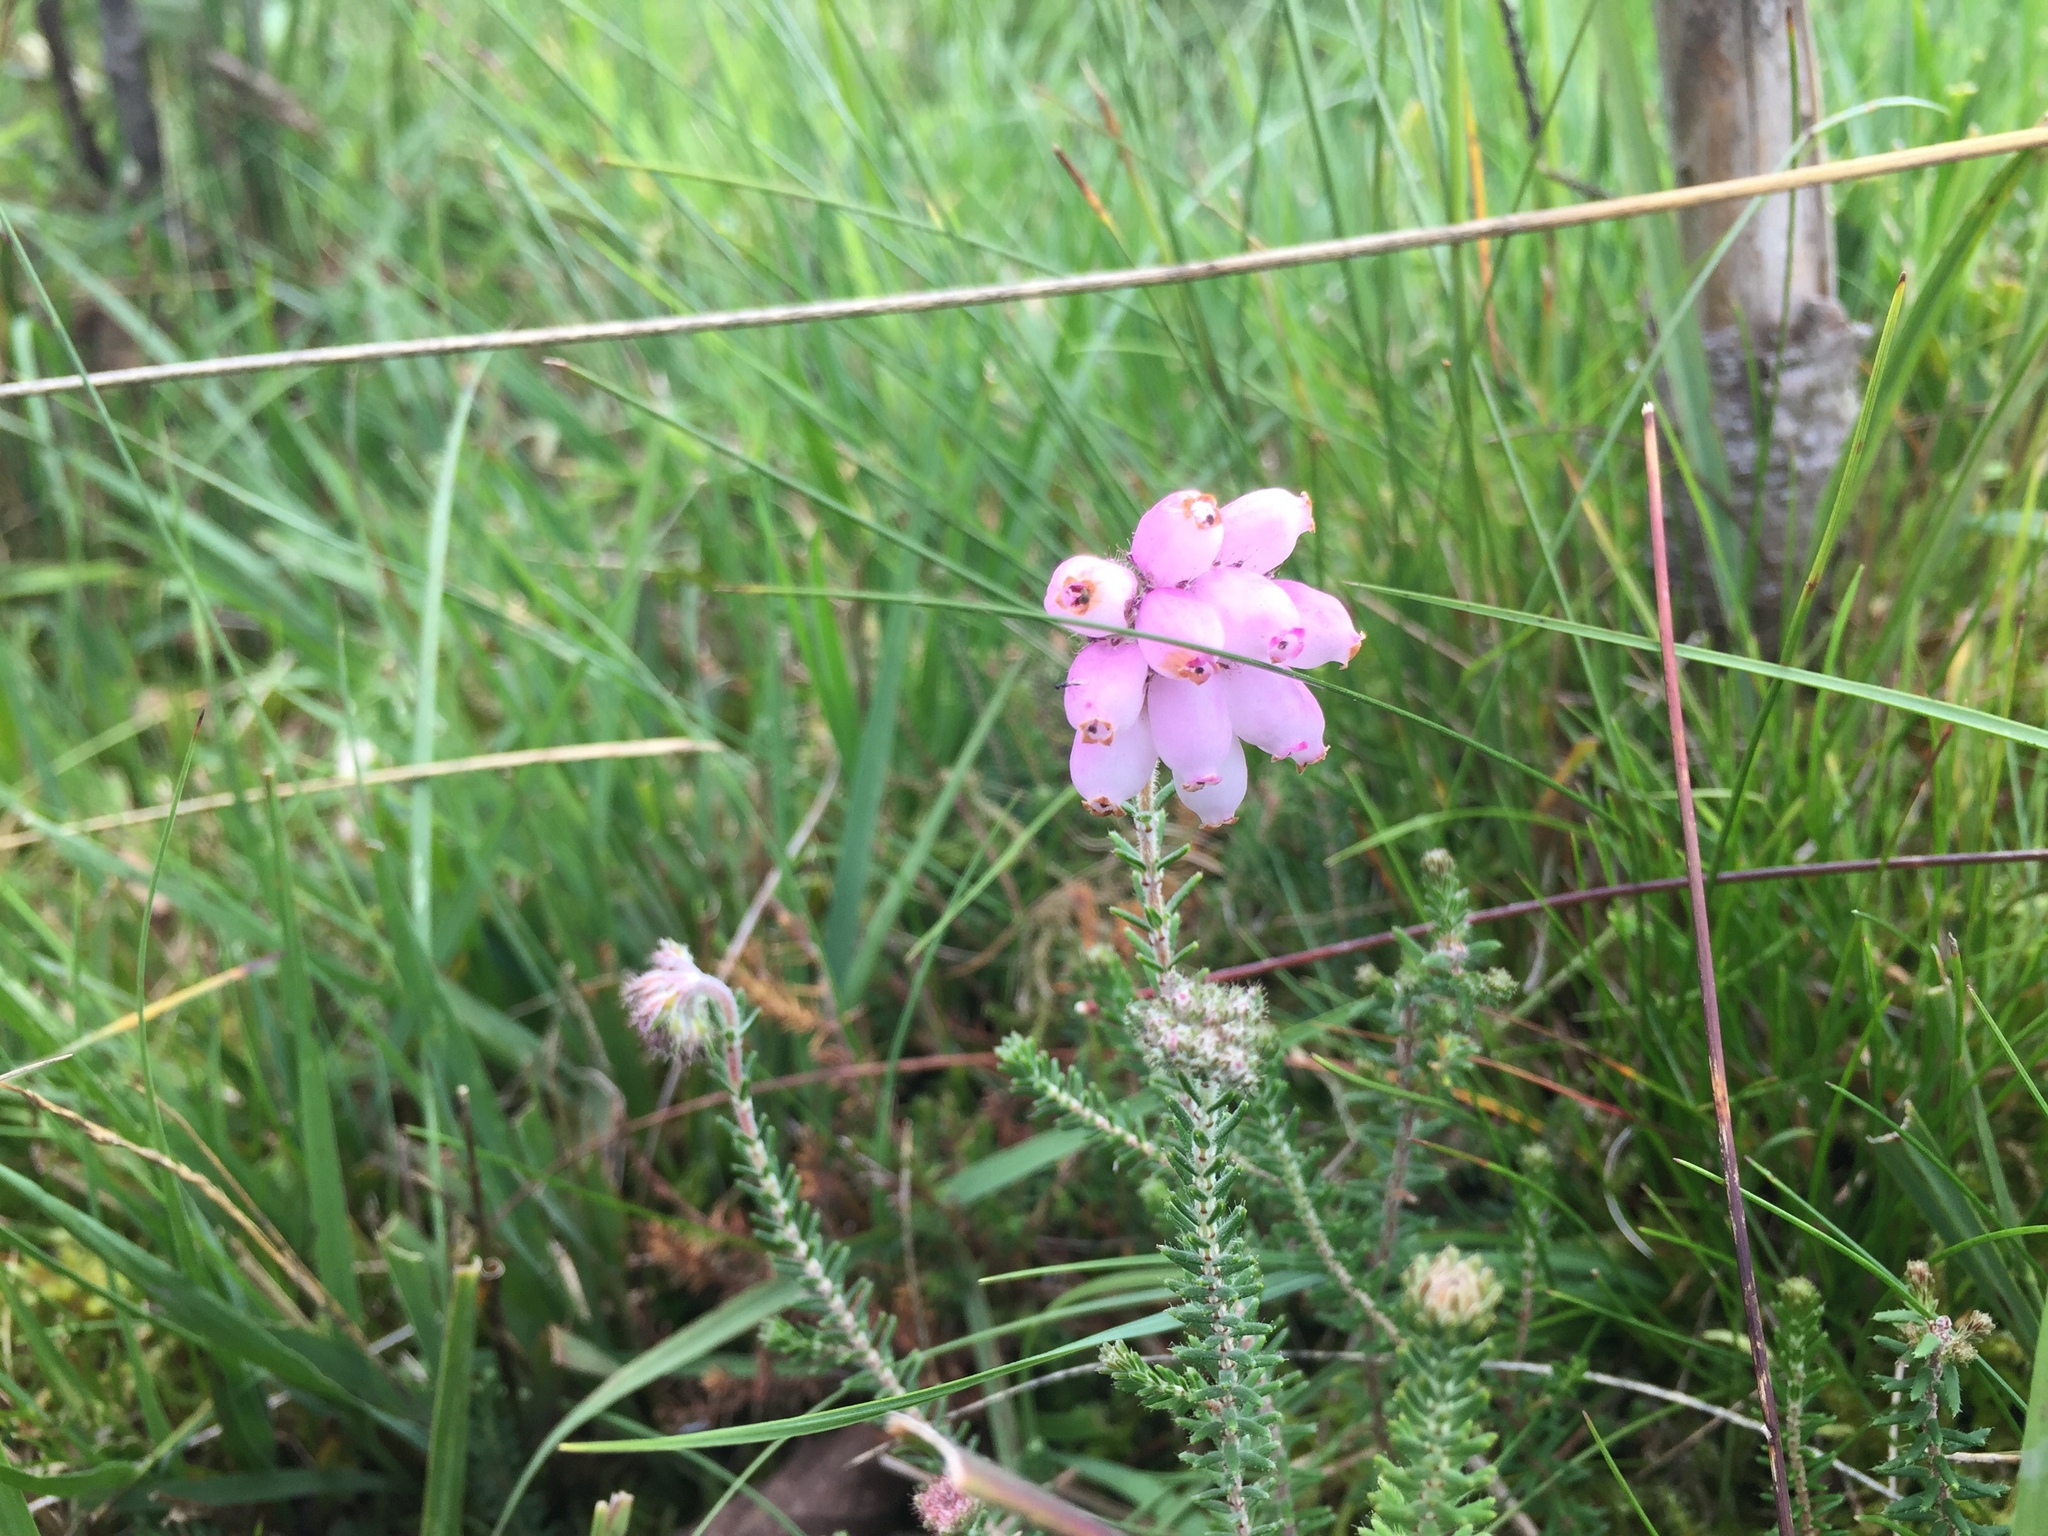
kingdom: Plantae
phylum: Tracheophyta
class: Magnoliopsida
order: Ericales
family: Ericaceae
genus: Erica
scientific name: Erica tetralix
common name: Cross-leaved heath
